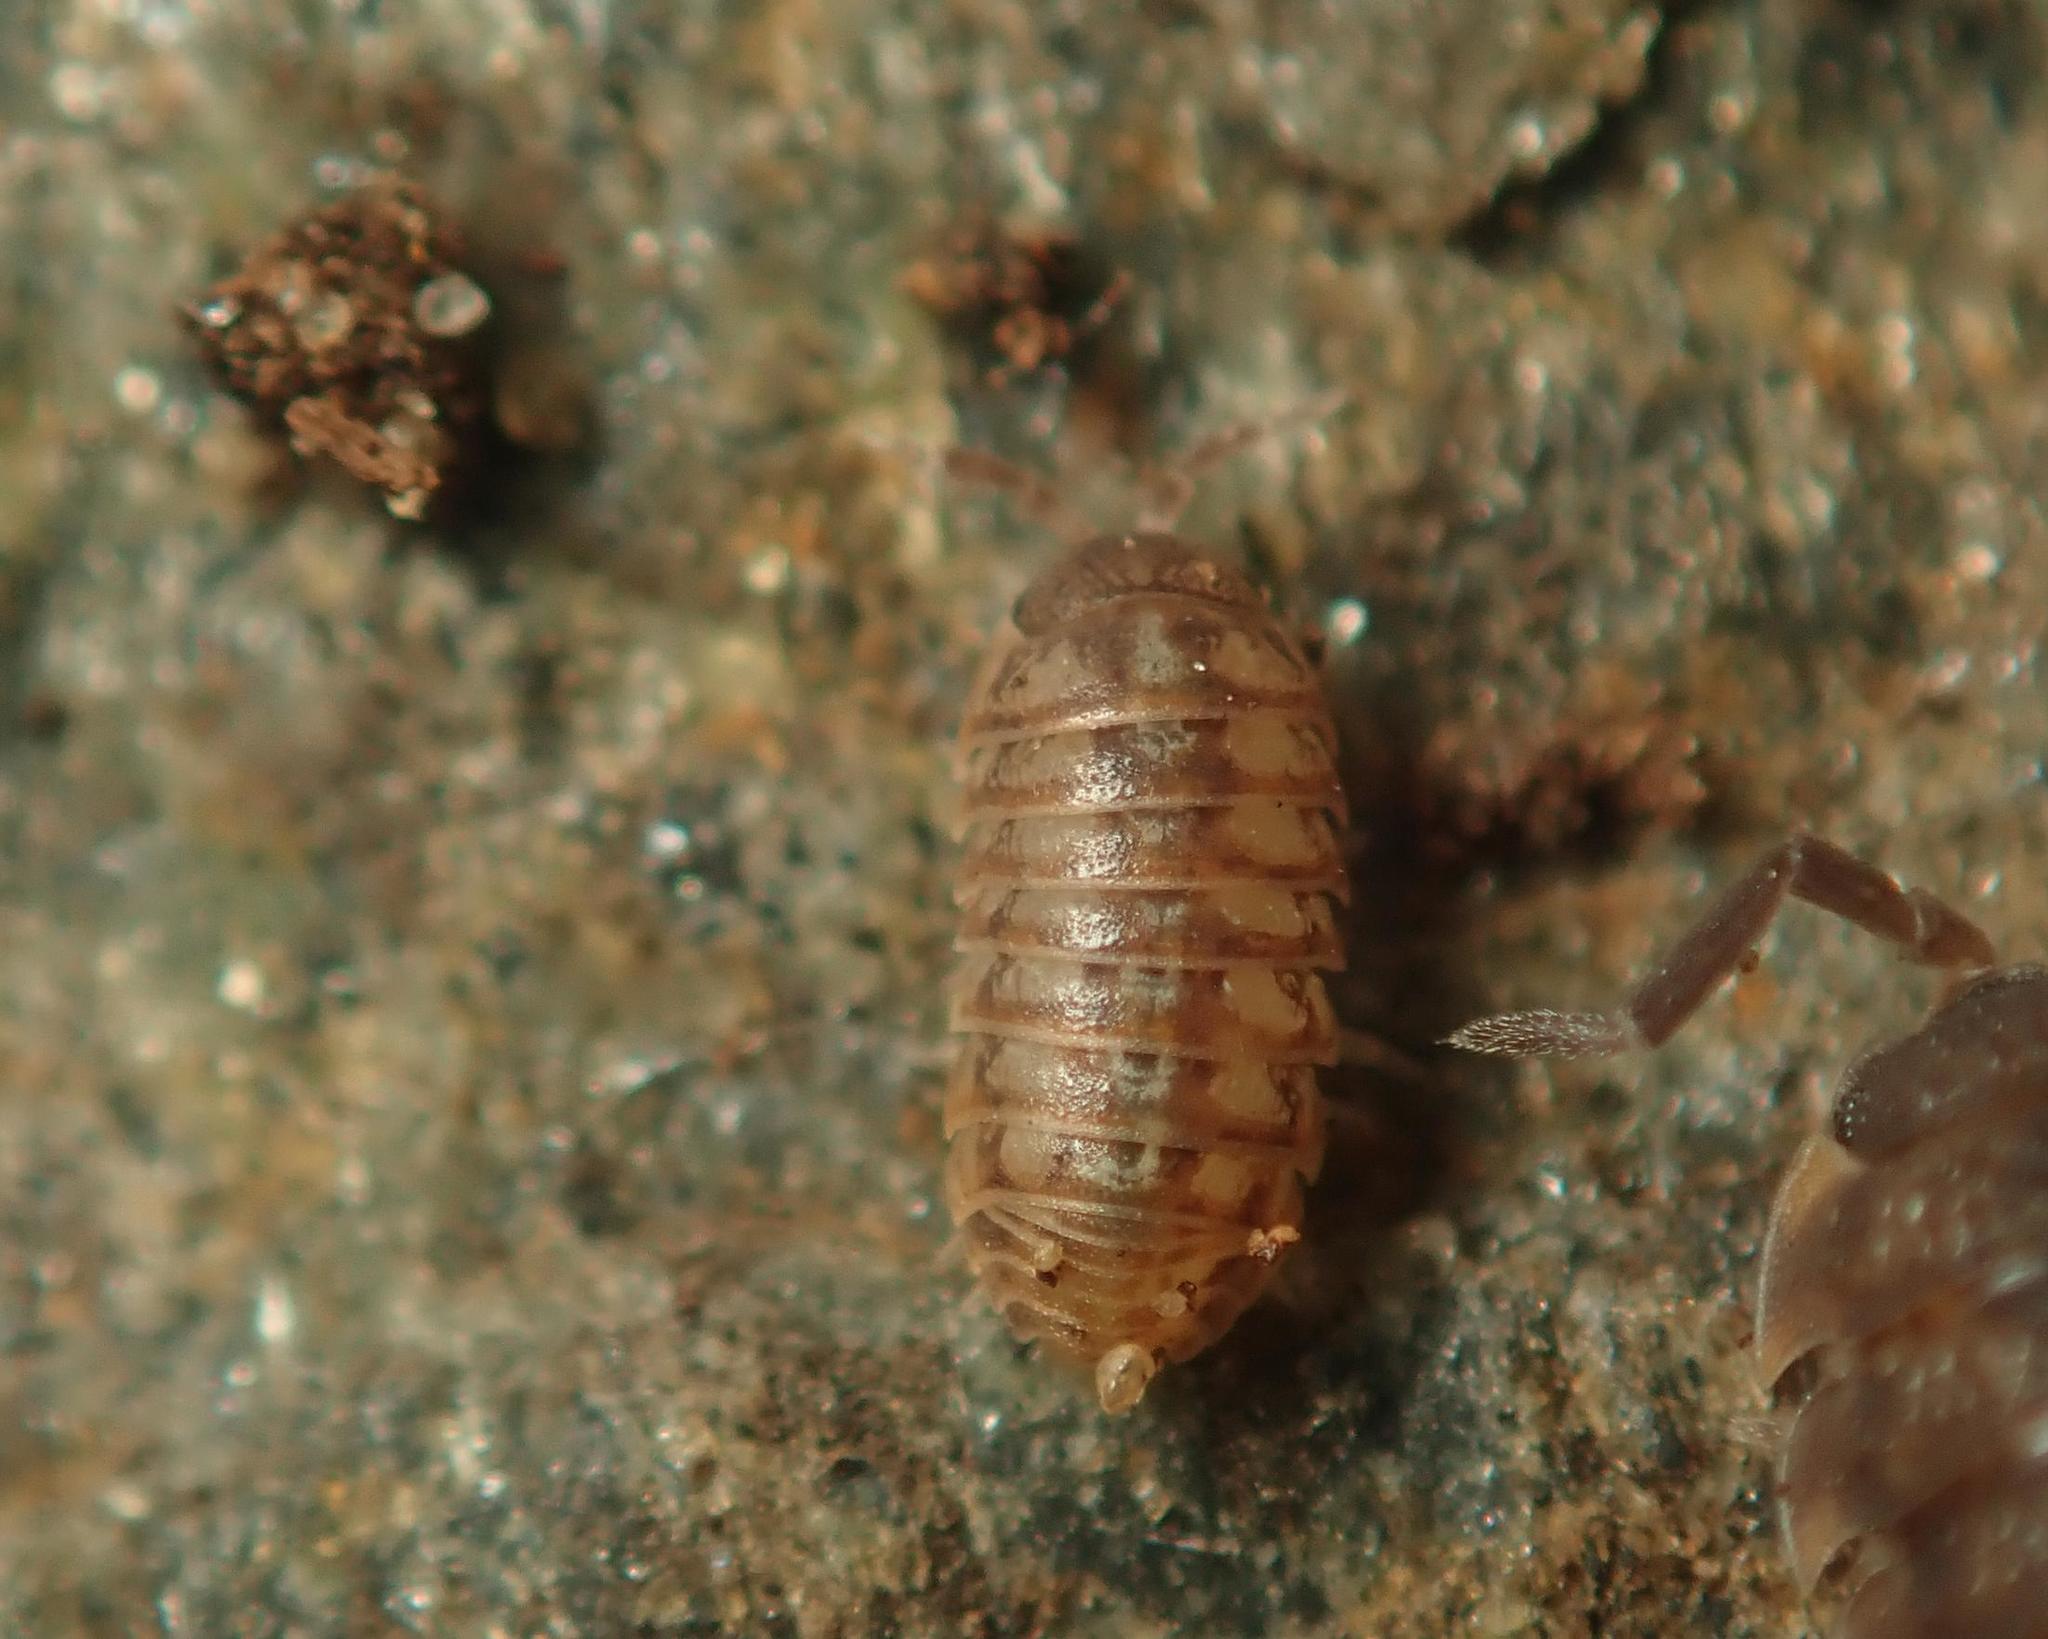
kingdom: Animalia
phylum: Arthropoda
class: Malacostraca
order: Isopoda
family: Armadillidiidae
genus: Armadillidium
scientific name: Armadillidium nasatum
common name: Isopod
